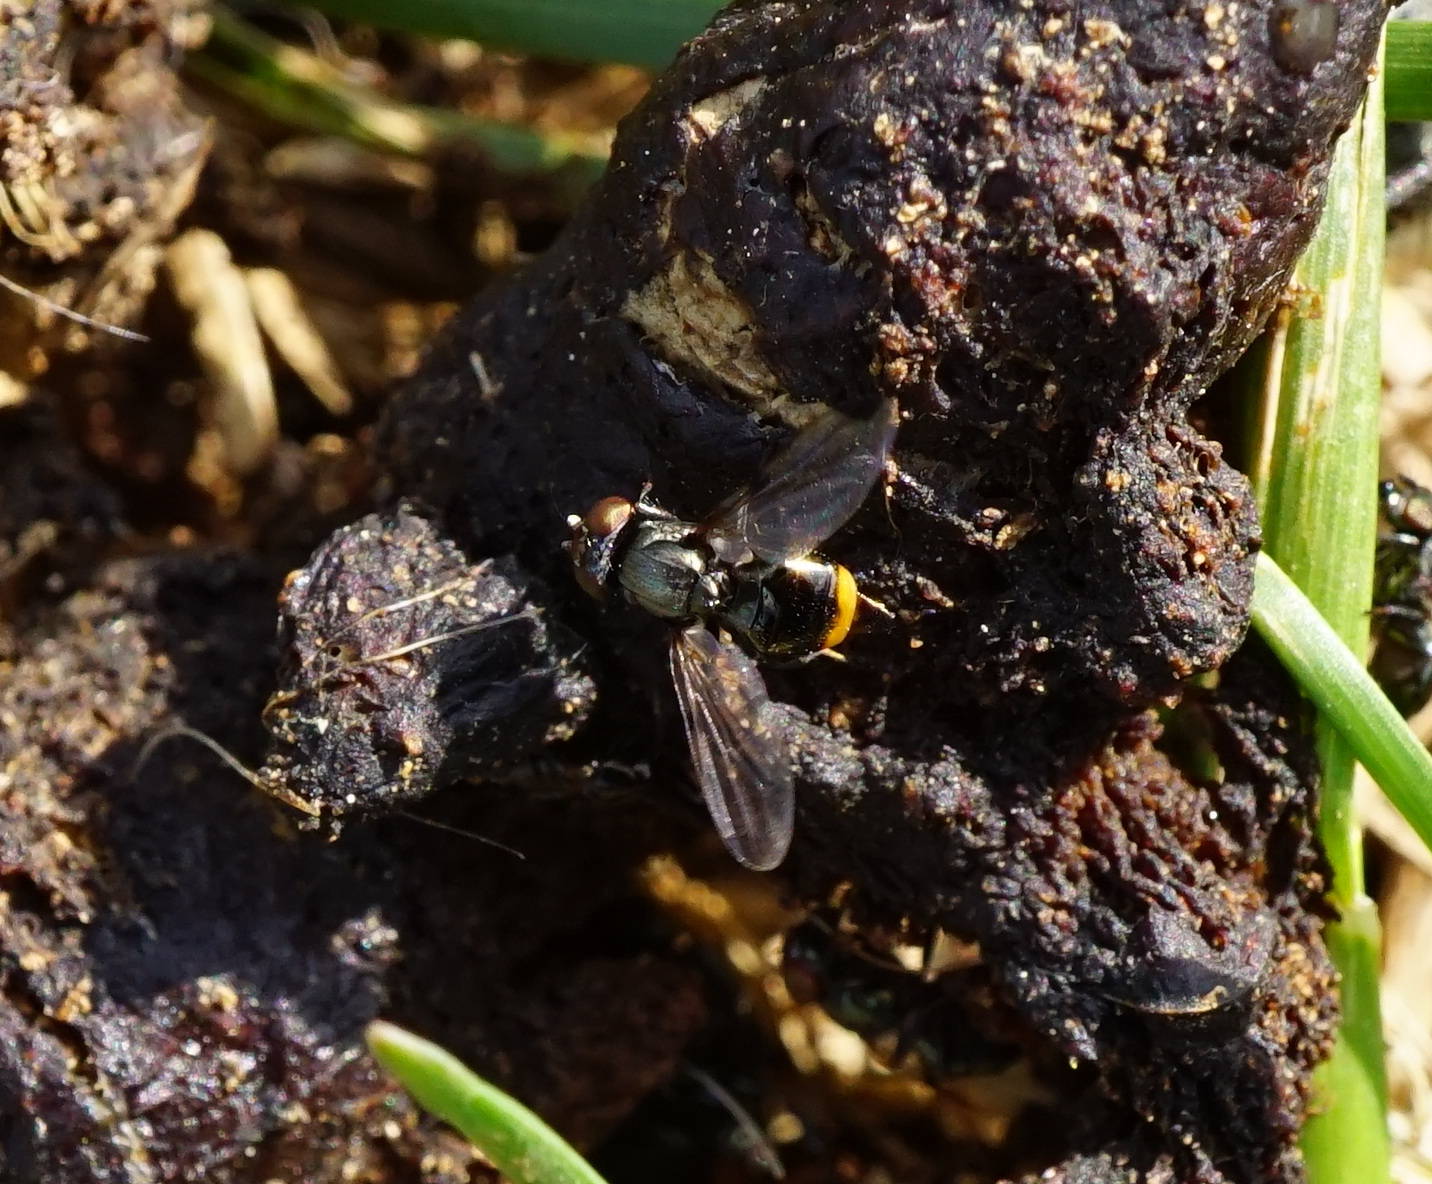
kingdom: Animalia
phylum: Arthropoda
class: Insecta
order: Diptera
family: Ulidiidae
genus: Euxesta
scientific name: Euxesta notata
